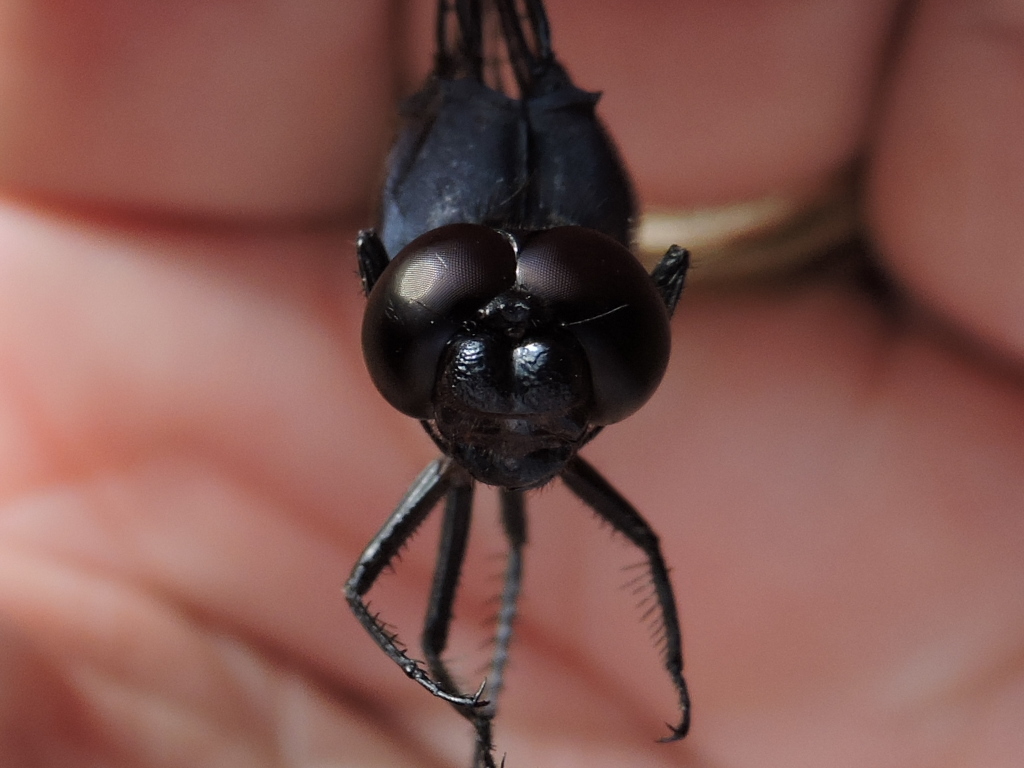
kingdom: Animalia
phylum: Arthropoda
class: Insecta
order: Odonata
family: Libellulidae
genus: Libellula
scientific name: Libellula incesta
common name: Slaty skimmer
